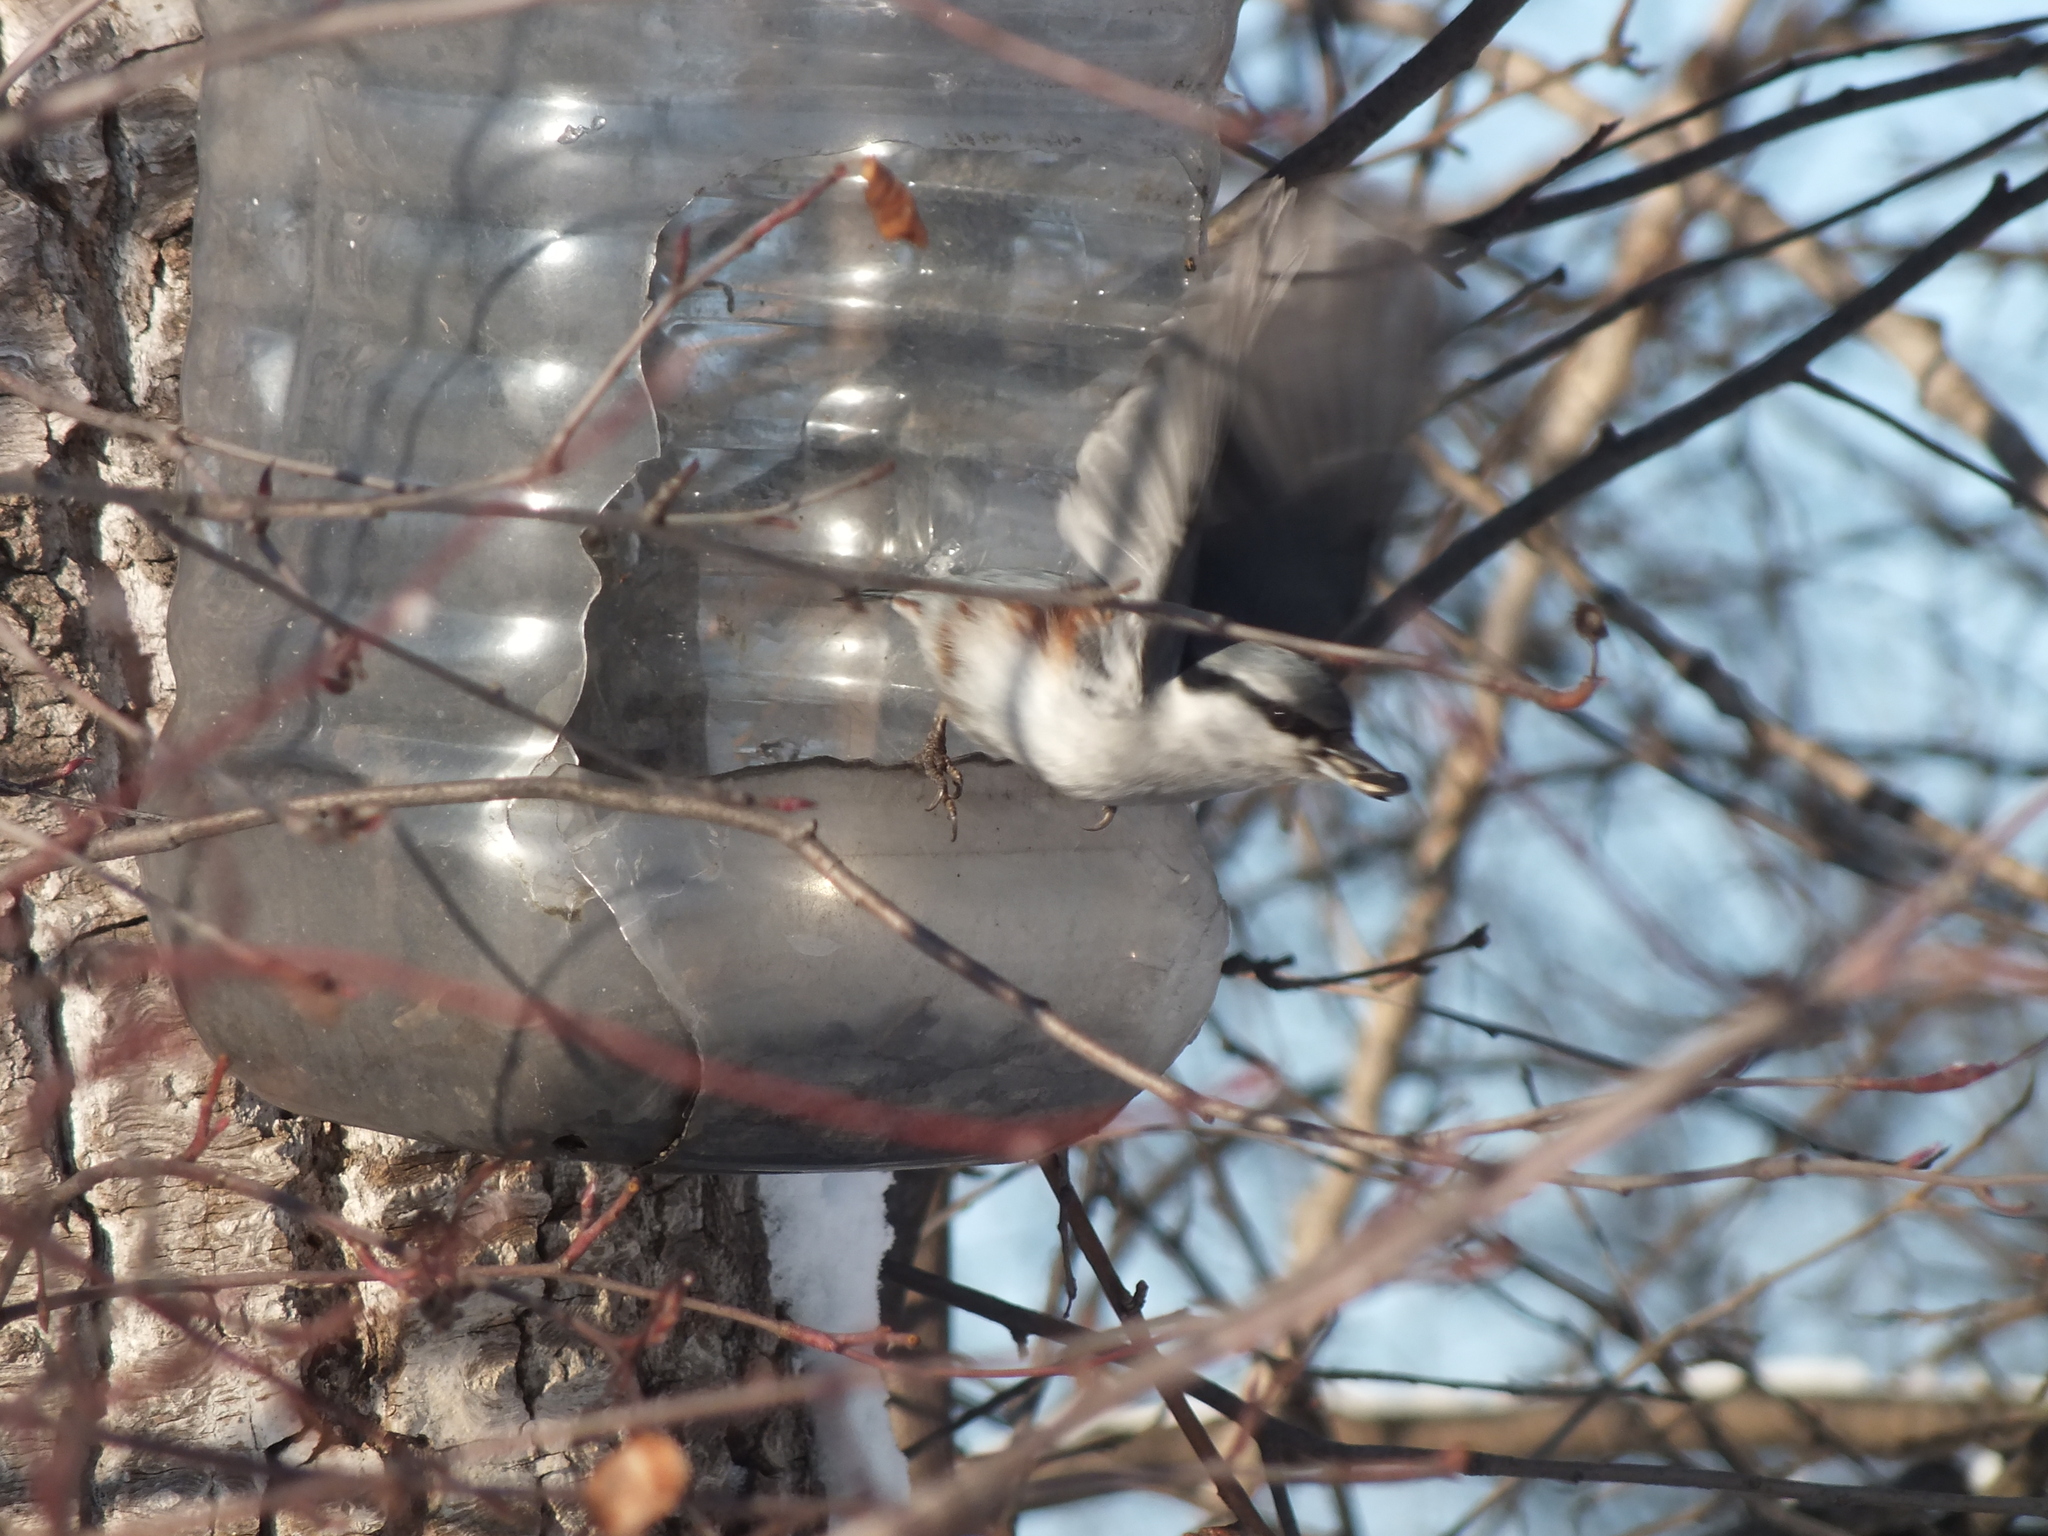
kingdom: Animalia
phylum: Chordata
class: Aves
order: Passeriformes
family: Sittidae
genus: Sitta
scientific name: Sitta europaea
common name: Eurasian nuthatch
